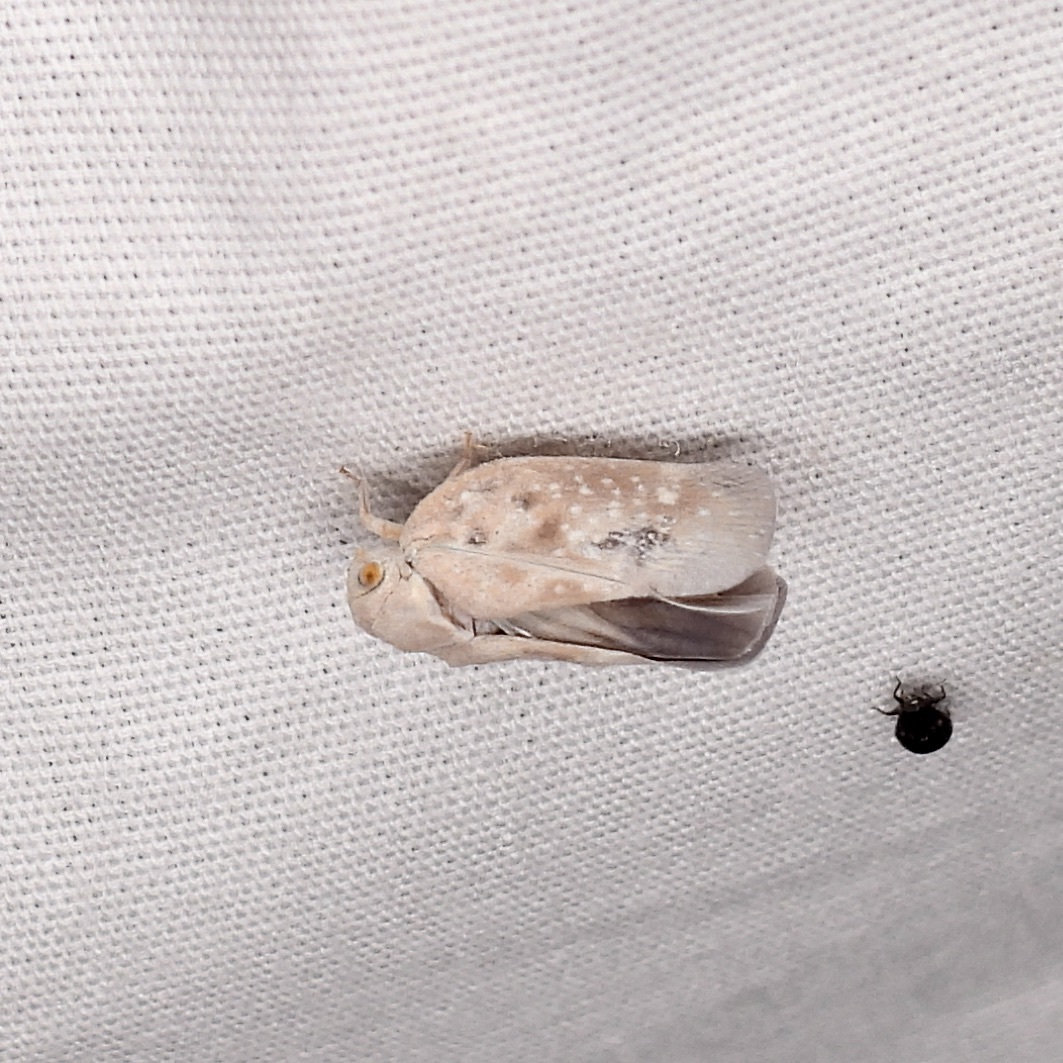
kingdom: Animalia
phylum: Arthropoda
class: Insecta
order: Hemiptera
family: Flatidae
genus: Metcalfa
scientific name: Metcalfa pruinosa
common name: Citrus flatid planthopper
